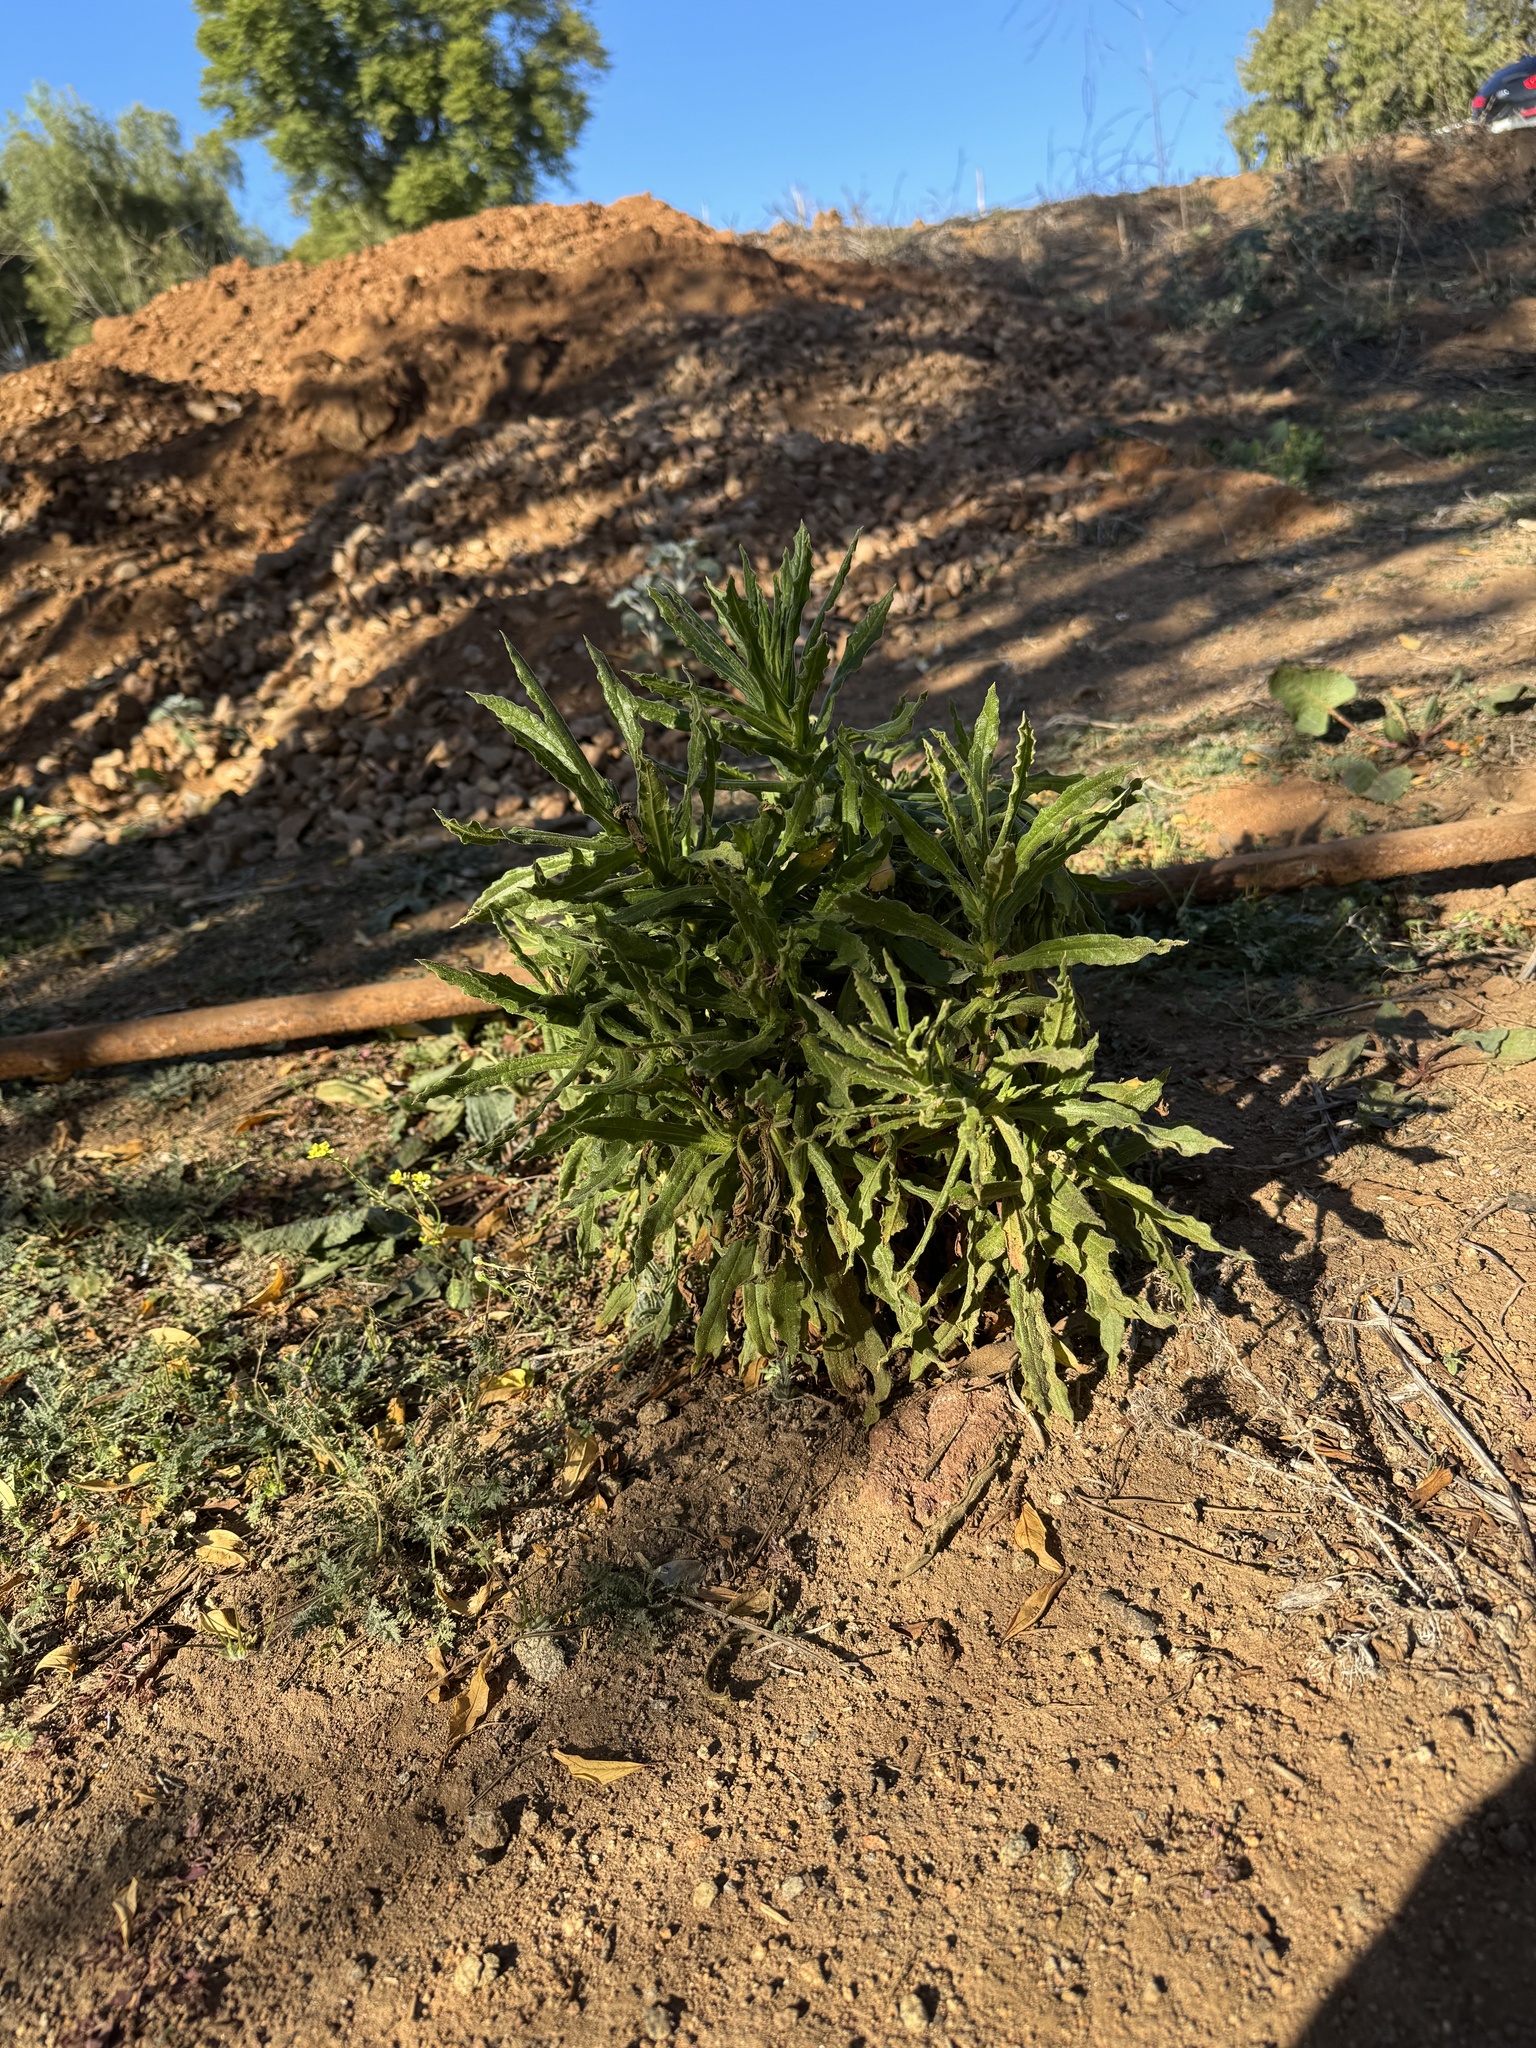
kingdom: Plantae
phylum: Tracheophyta
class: Magnoliopsida
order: Asterales
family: Asteraceae
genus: Pseudognaphalium
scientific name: Pseudognaphalium californicum
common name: California rabbit-tobacco
